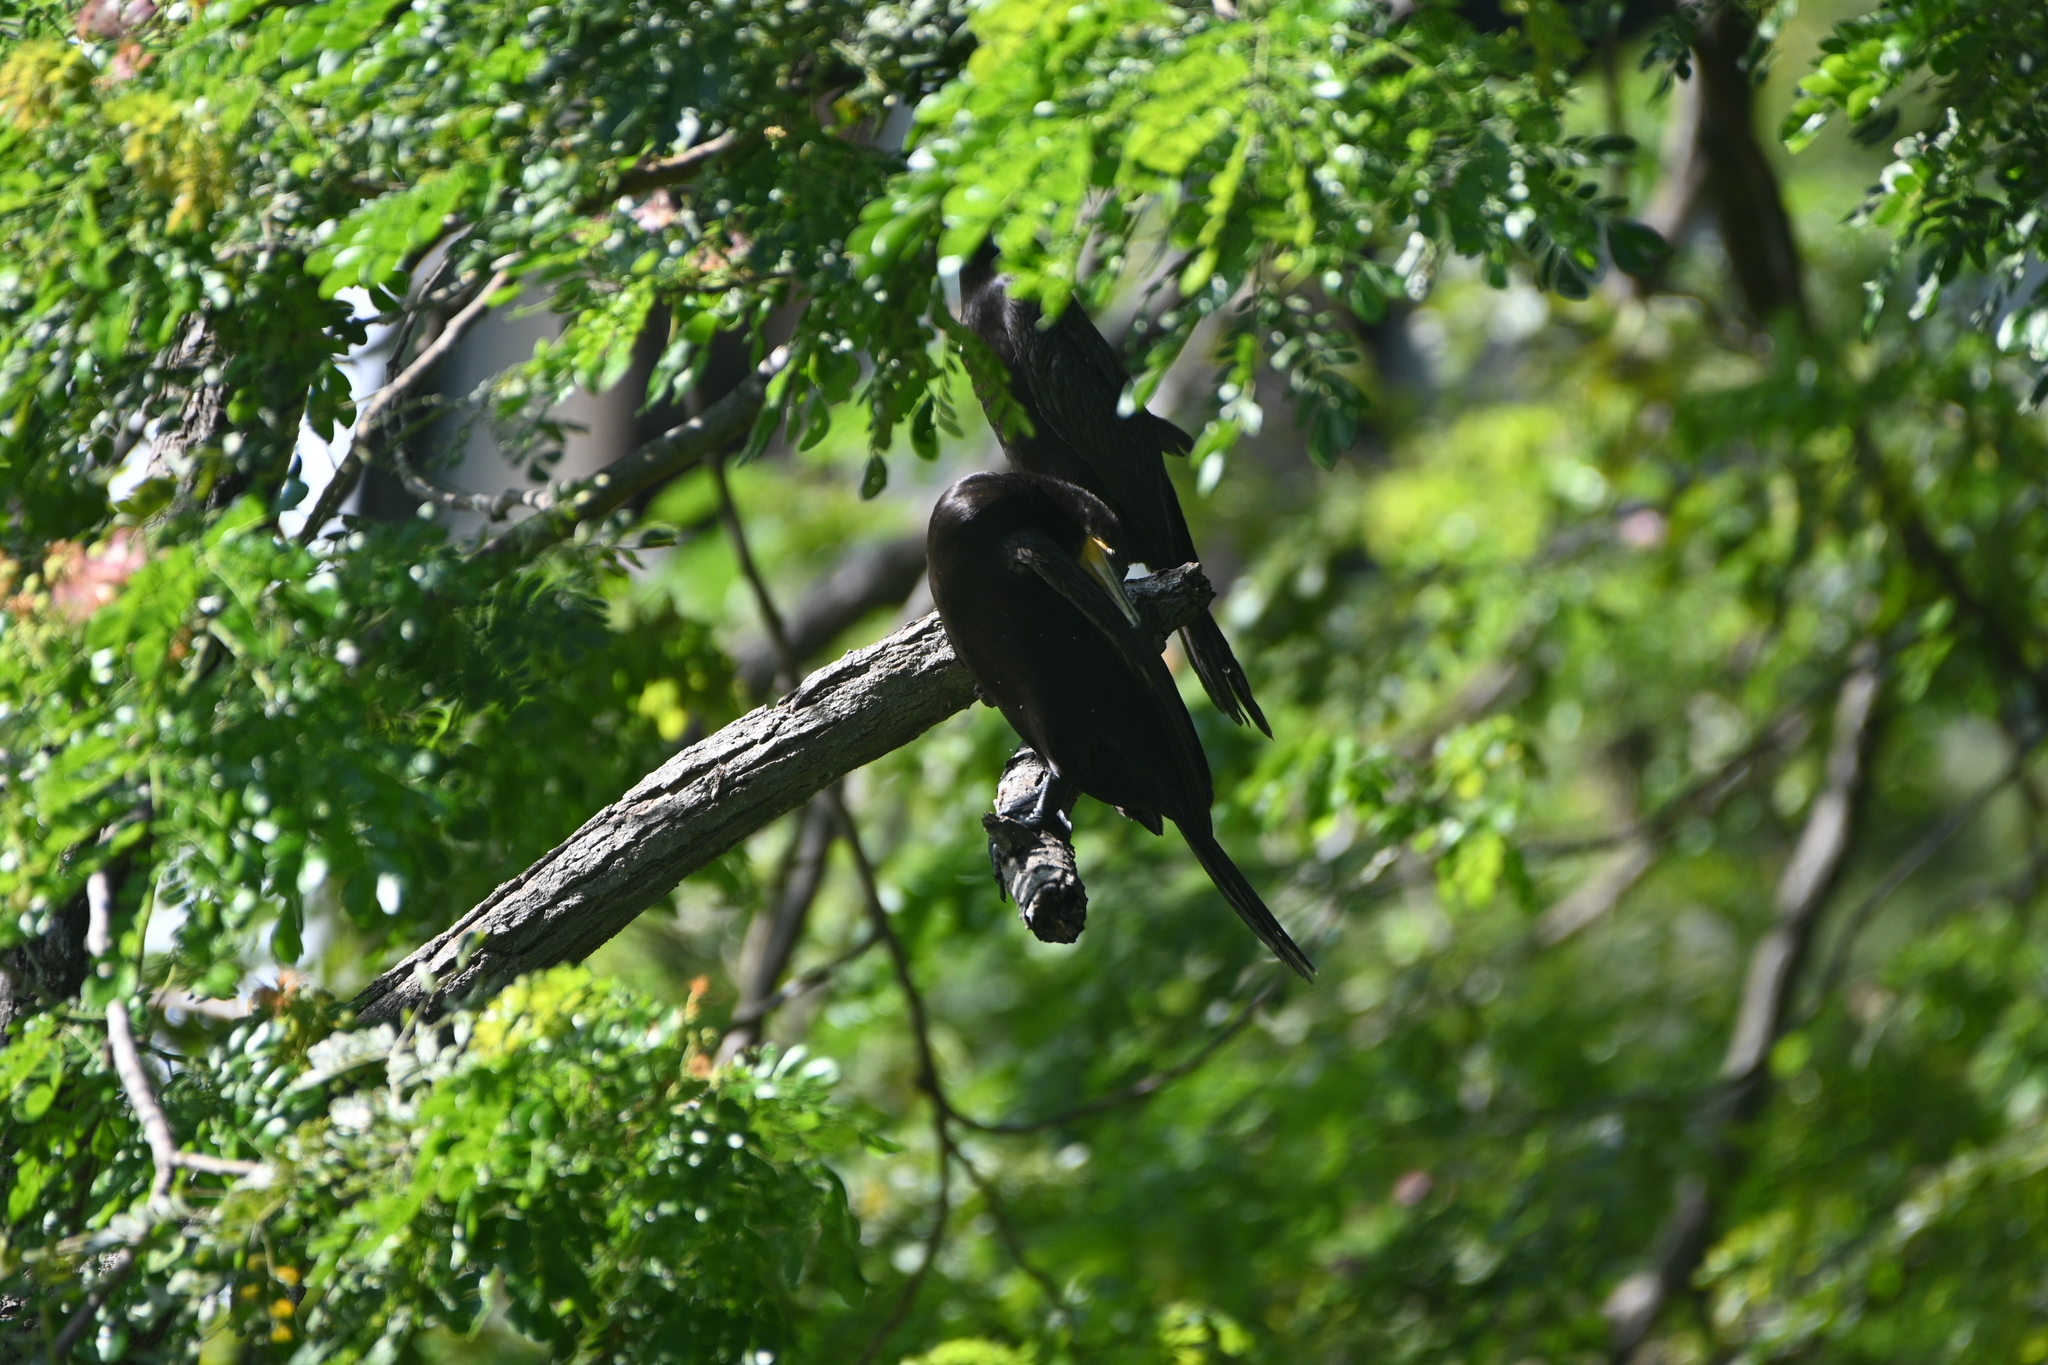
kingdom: Animalia
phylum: Chordata
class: Aves
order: Suliformes
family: Phalacrocoracidae
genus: Phalacrocorax
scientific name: Phalacrocorax brasilianus
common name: Neotropic cormorant
